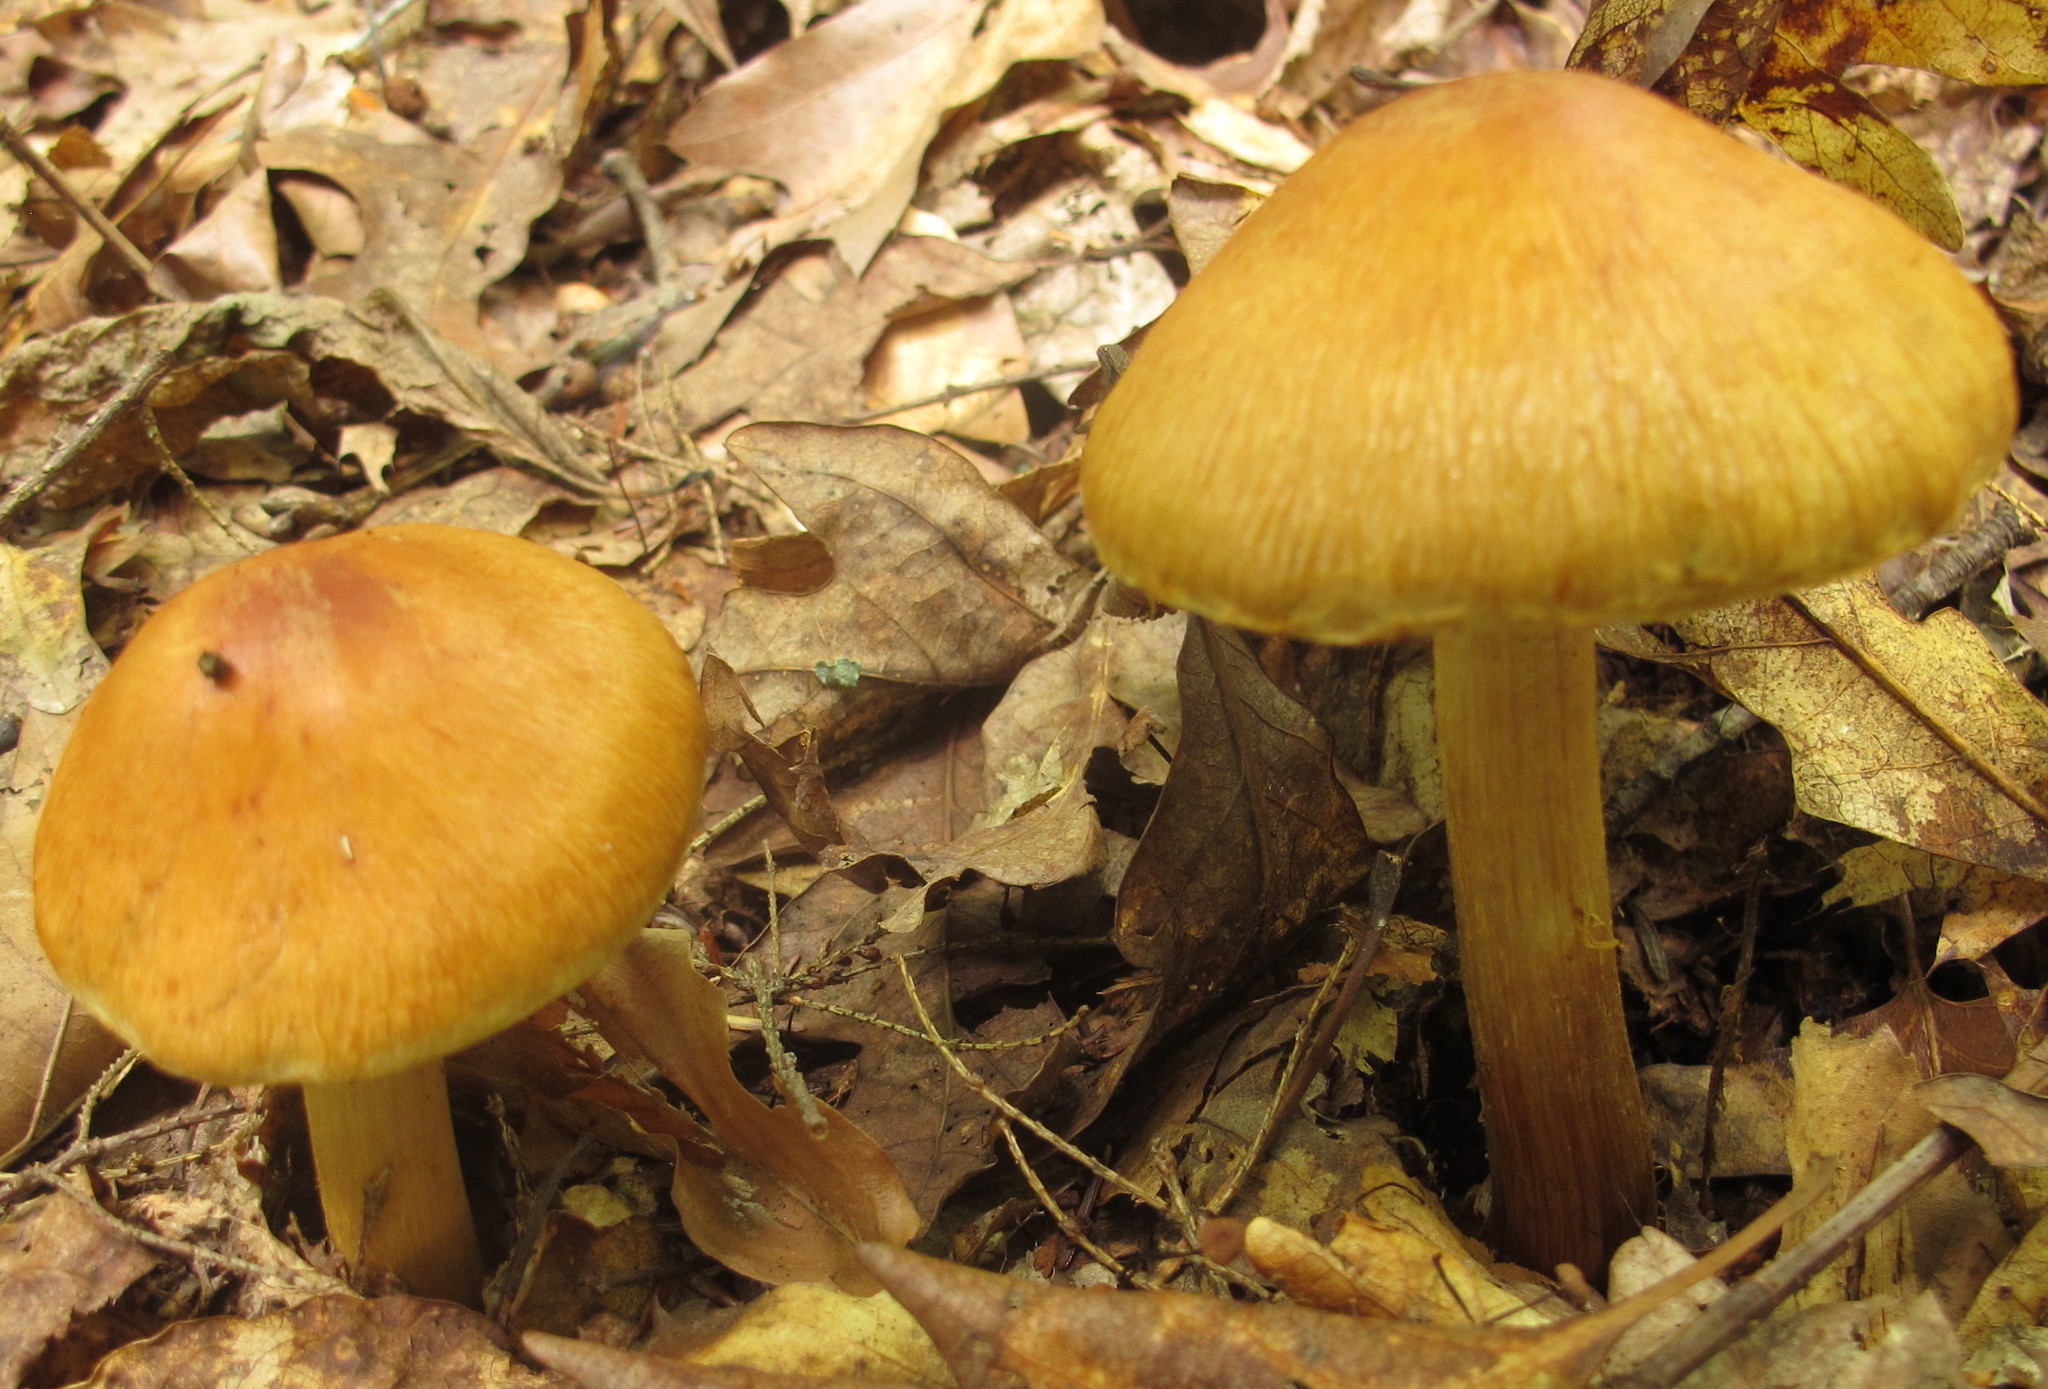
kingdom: Fungi
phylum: Basidiomycota
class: Agaricomycetes
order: Agaricales
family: Cortinariaceae
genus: Cortinarius
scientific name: Cortinarius corrugatus
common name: Wrinkled cortinarius
